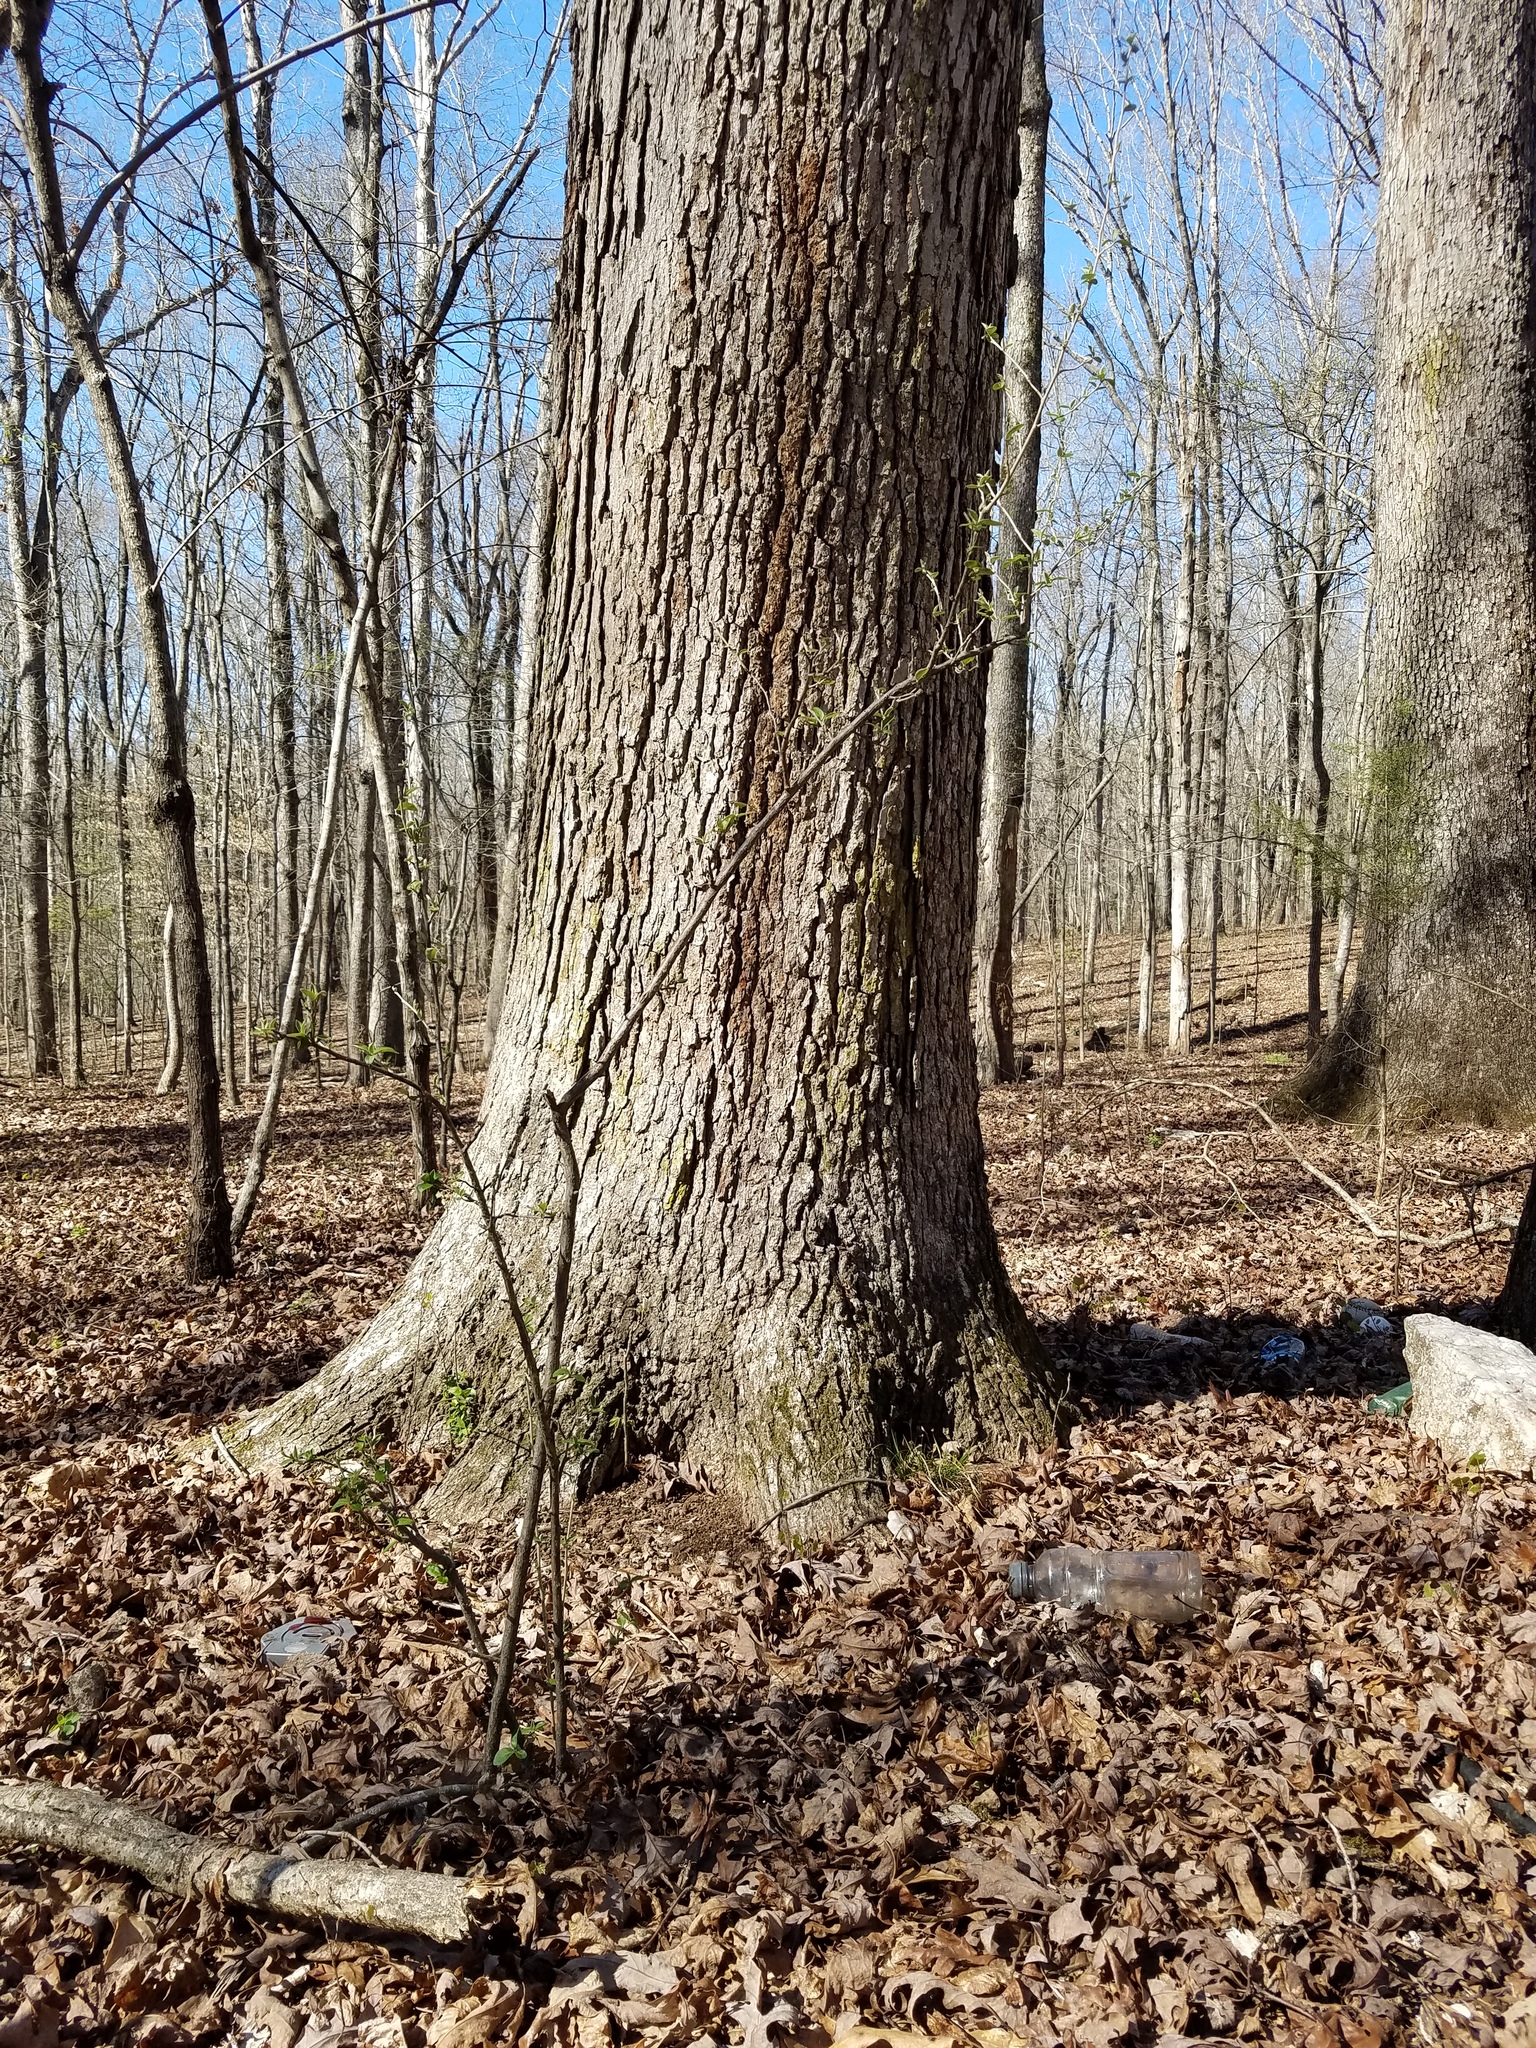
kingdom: Plantae
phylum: Tracheophyta
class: Magnoliopsida
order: Rosales
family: Elaeagnaceae
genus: Elaeagnus
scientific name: Elaeagnus umbellata
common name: Autumn olive
